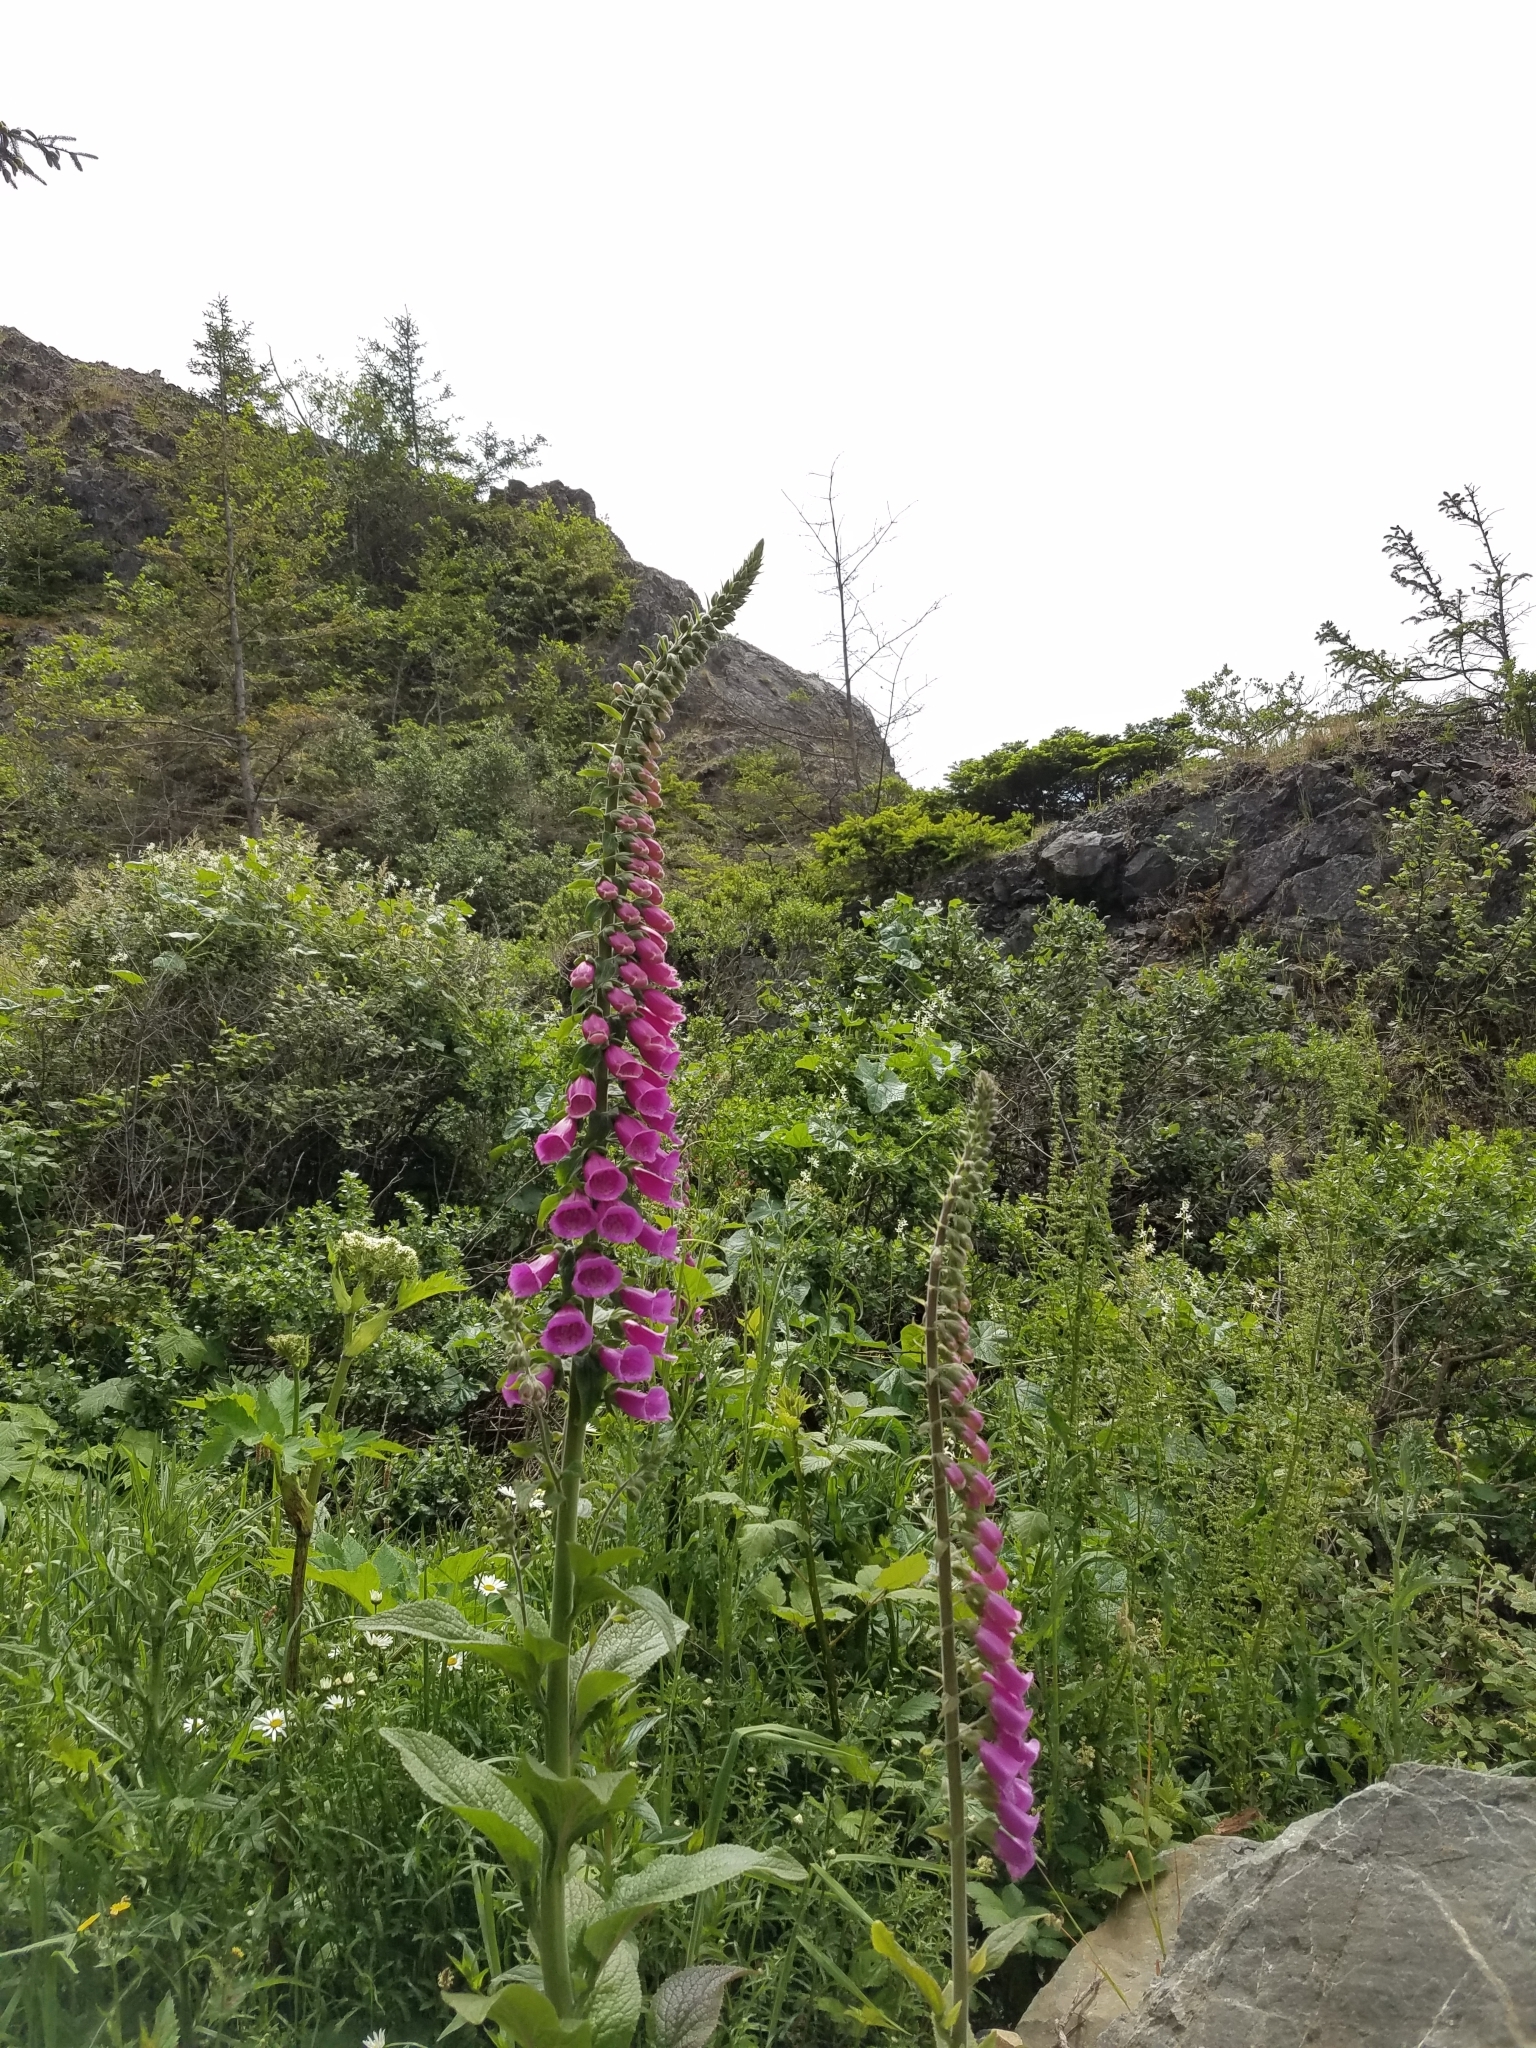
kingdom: Plantae
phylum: Tracheophyta
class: Magnoliopsida
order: Lamiales
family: Plantaginaceae
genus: Digitalis
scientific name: Digitalis purpurea
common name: Foxglove
